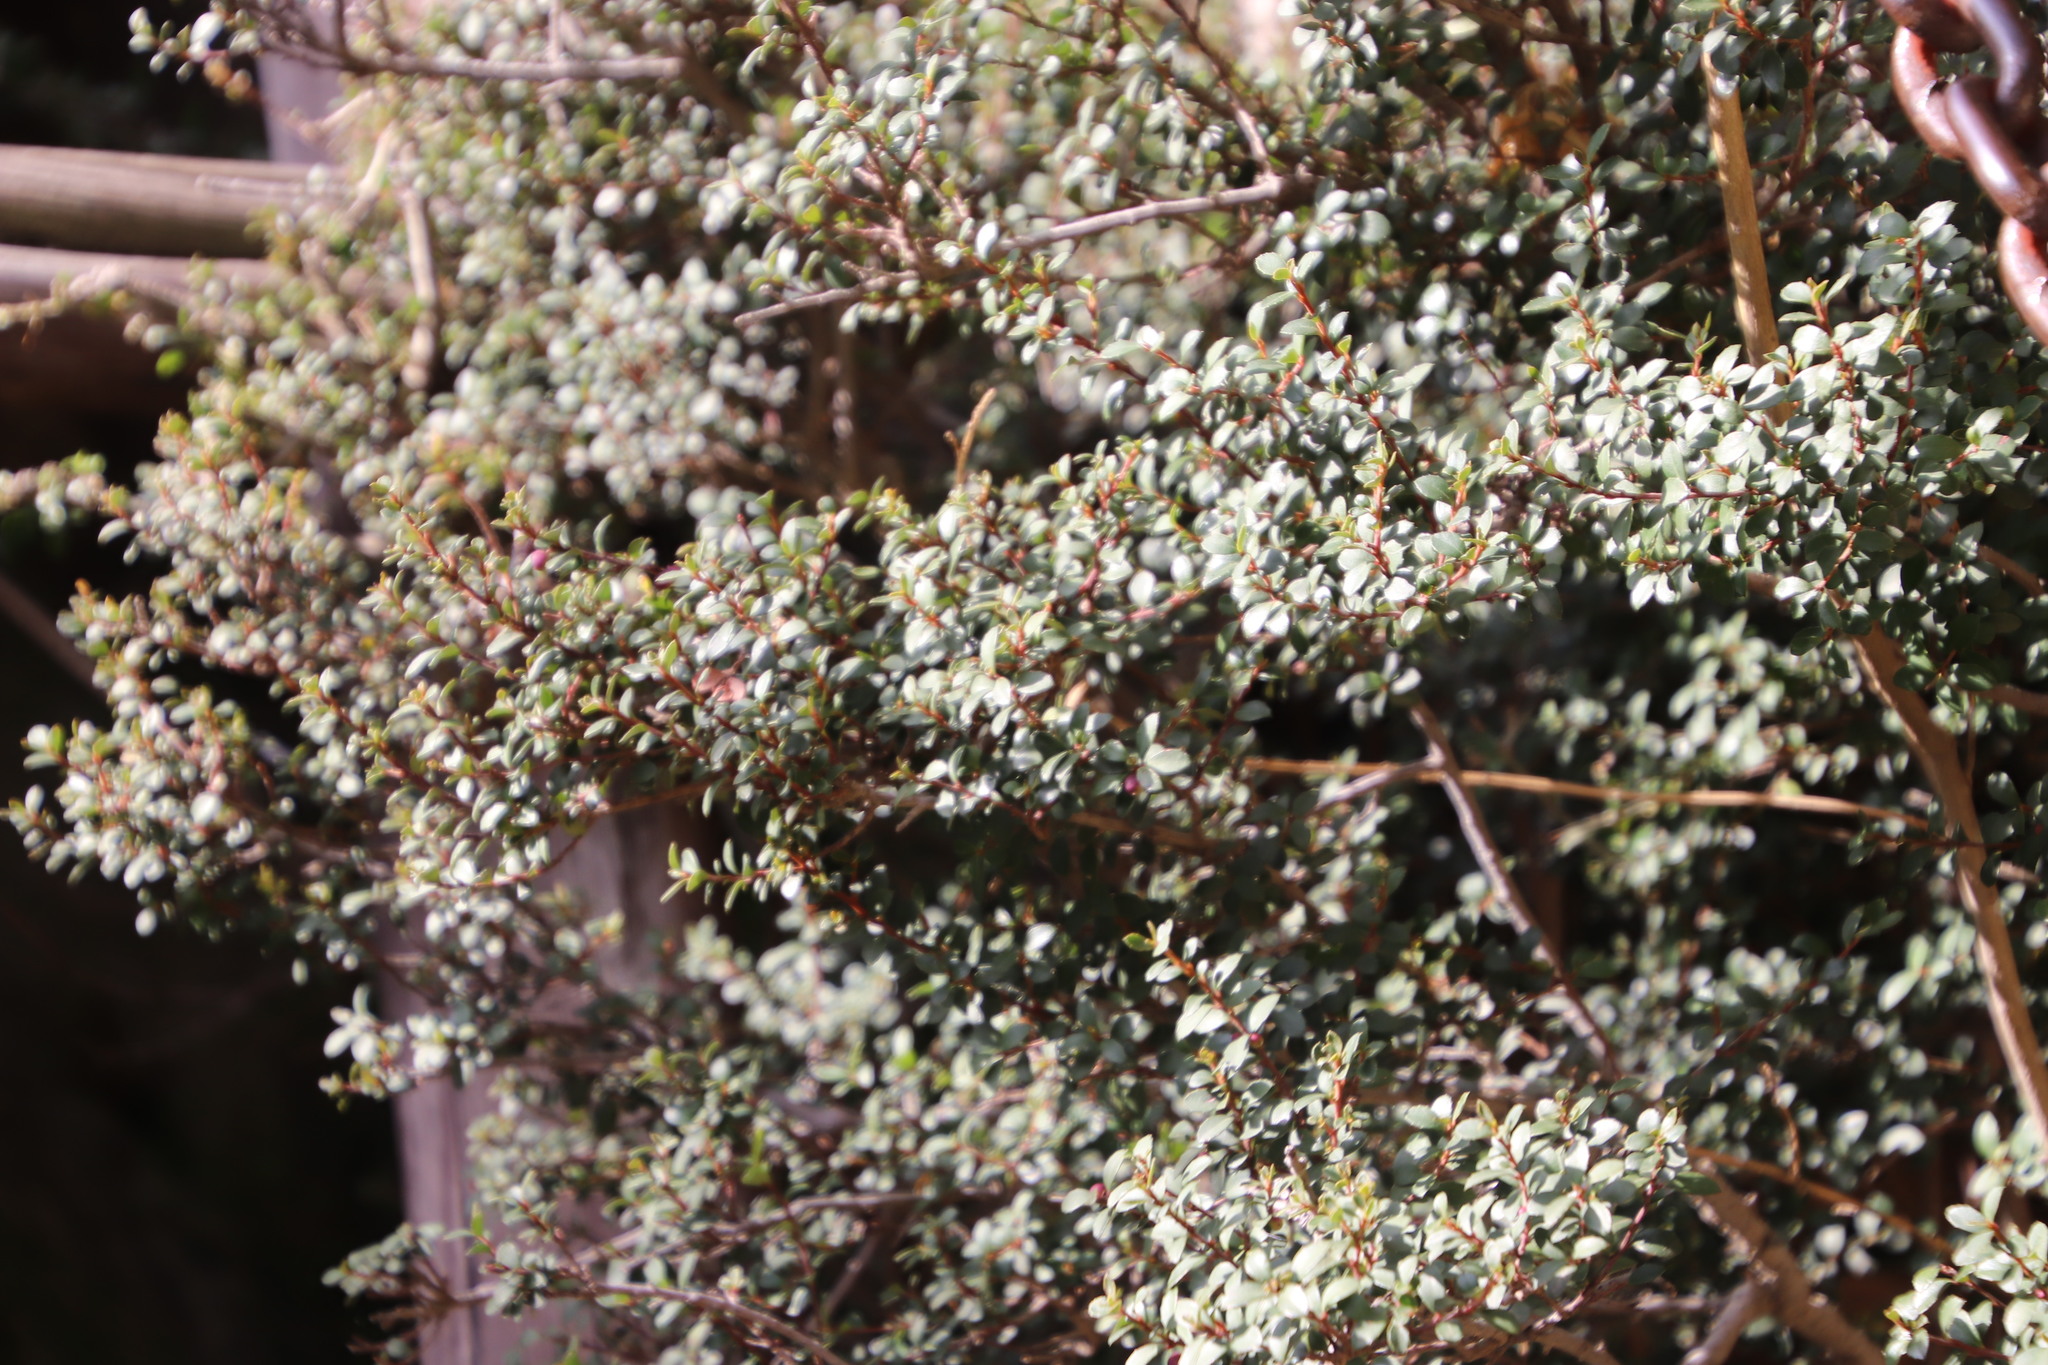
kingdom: Plantae
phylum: Tracheophyta
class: Magnoliopsida
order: Ericales
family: Primulaceae
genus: Myrsine
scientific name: Myrsine africana
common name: African-boxwood
